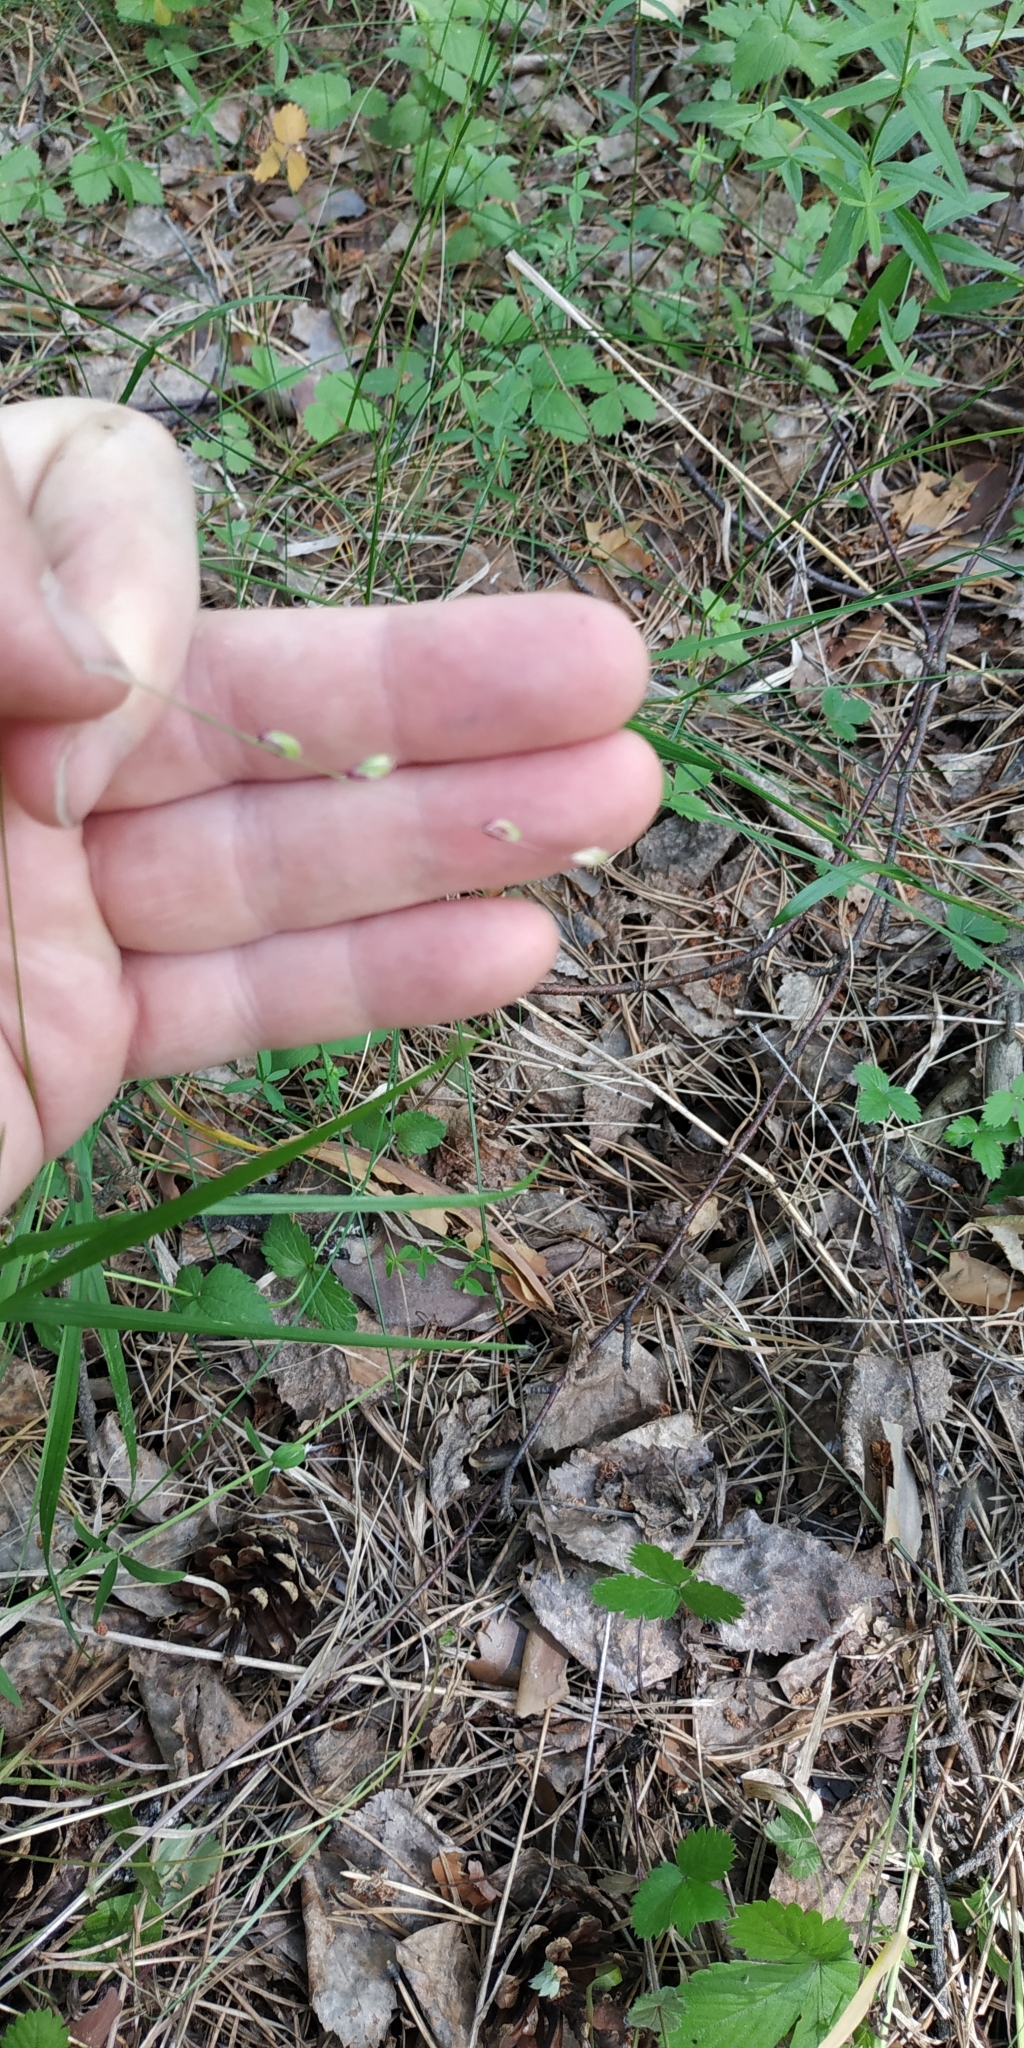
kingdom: Plantae
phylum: Tracheophyta
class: Liliopsida
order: Poales
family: Poaceae
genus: Melica
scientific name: Melica nutans
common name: Mountain melick
